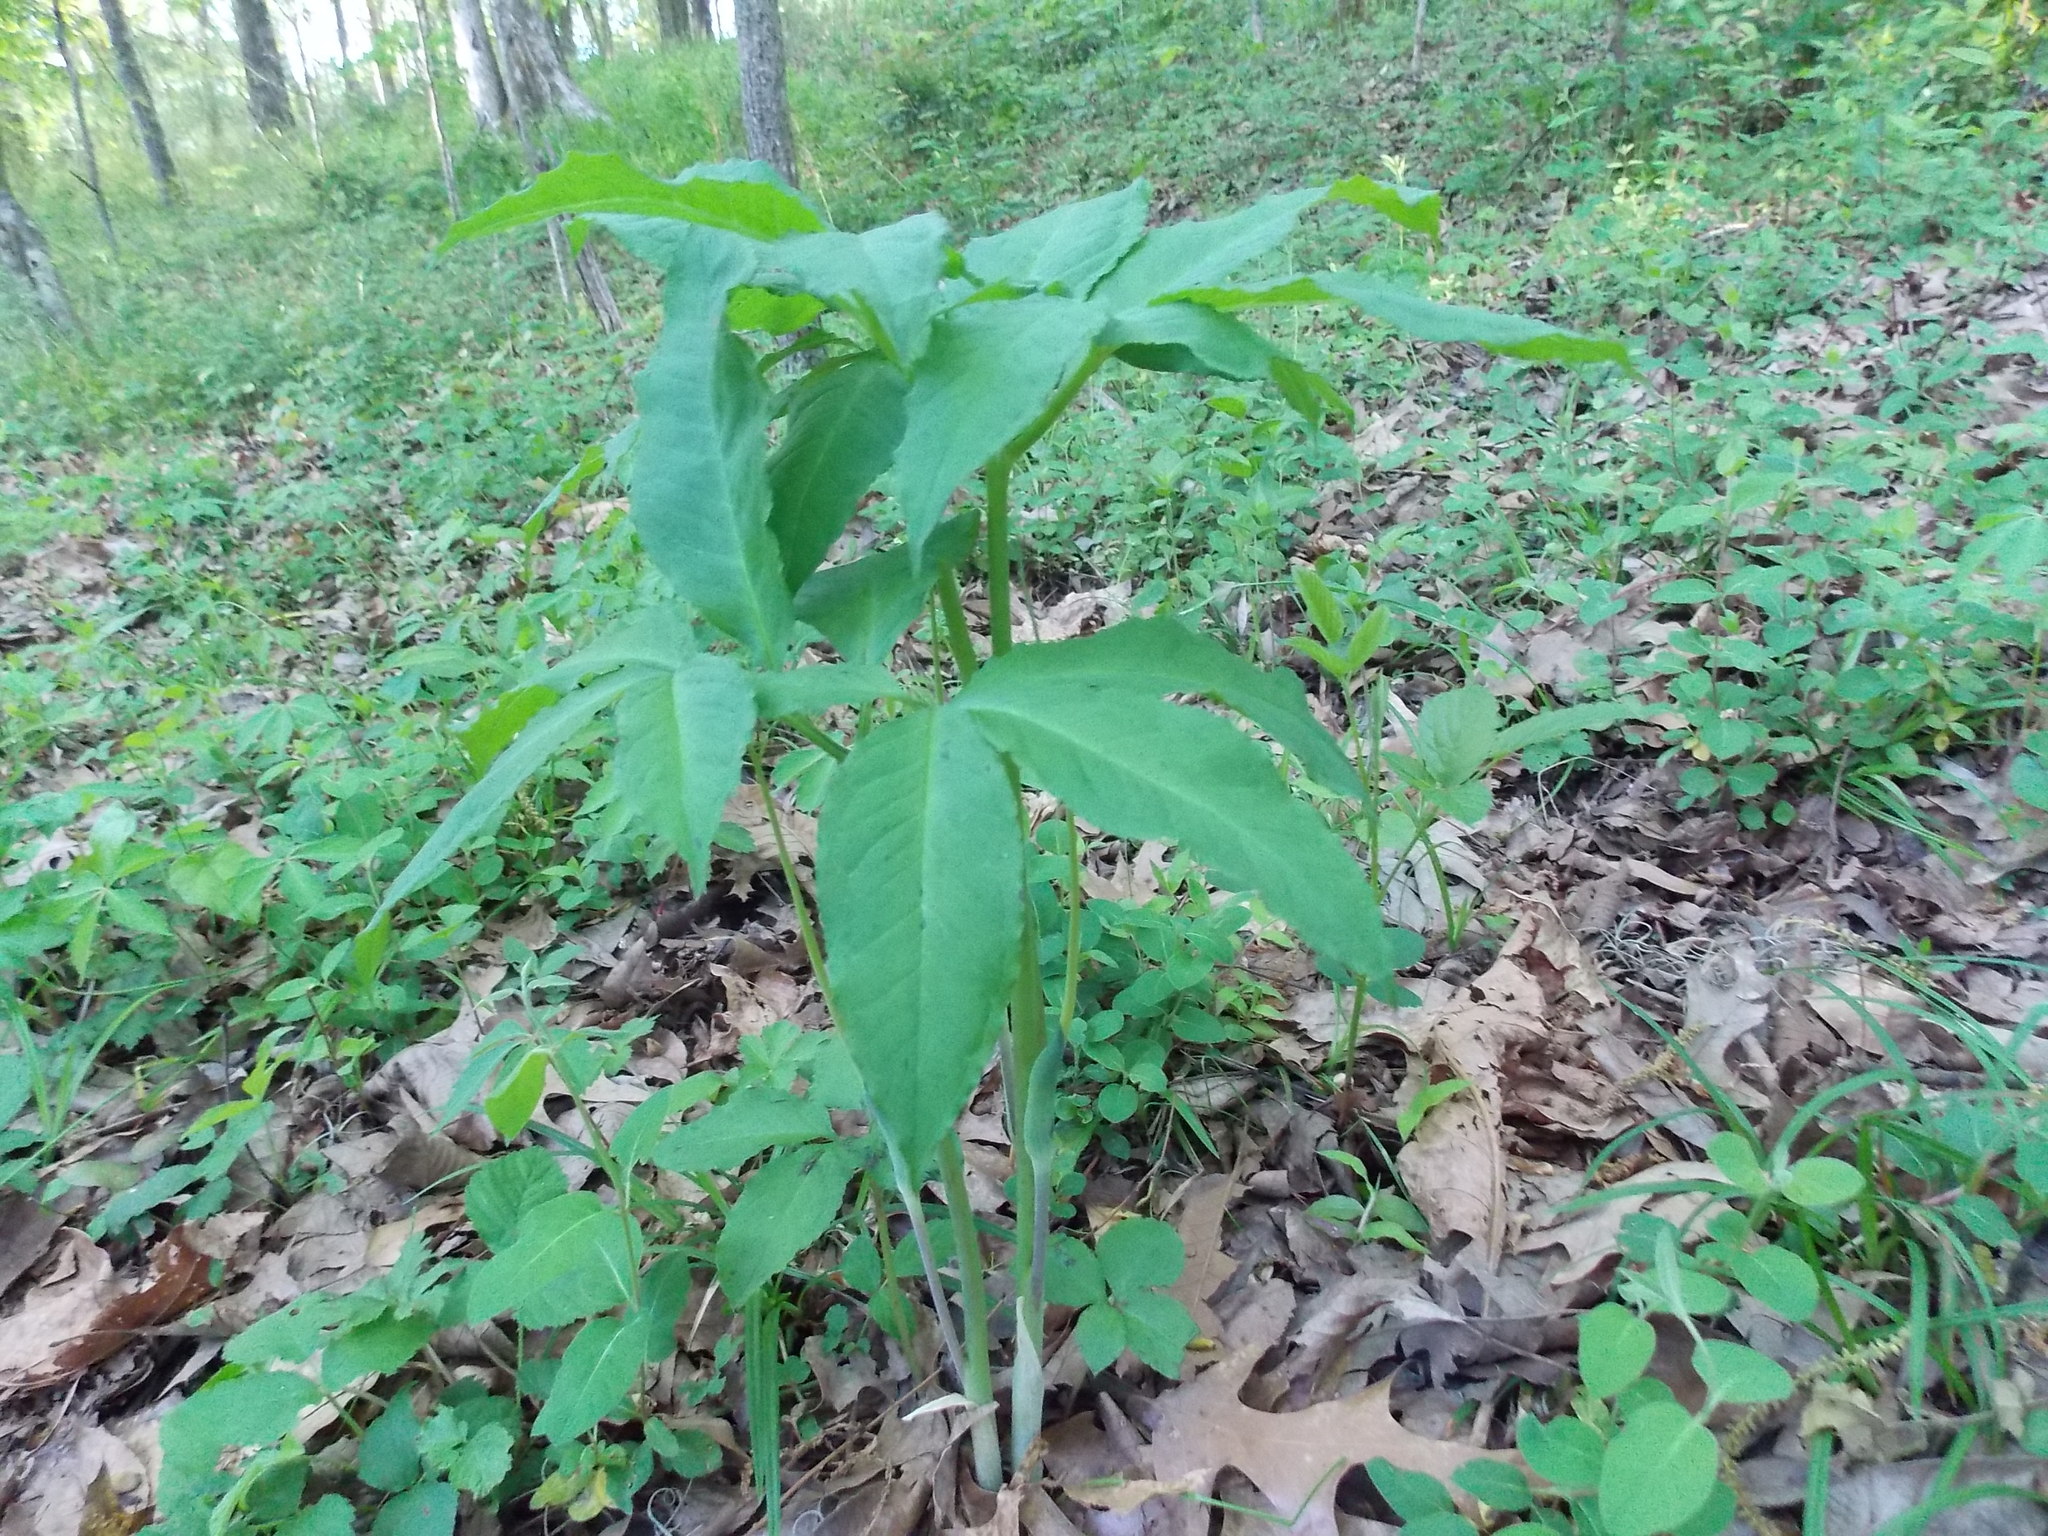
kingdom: Plantae
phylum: Tracheophyta
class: Liliopsida
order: Alismatales
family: Araceae
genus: Arisaema
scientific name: Arisaema dracontium
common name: Dragon-arum
